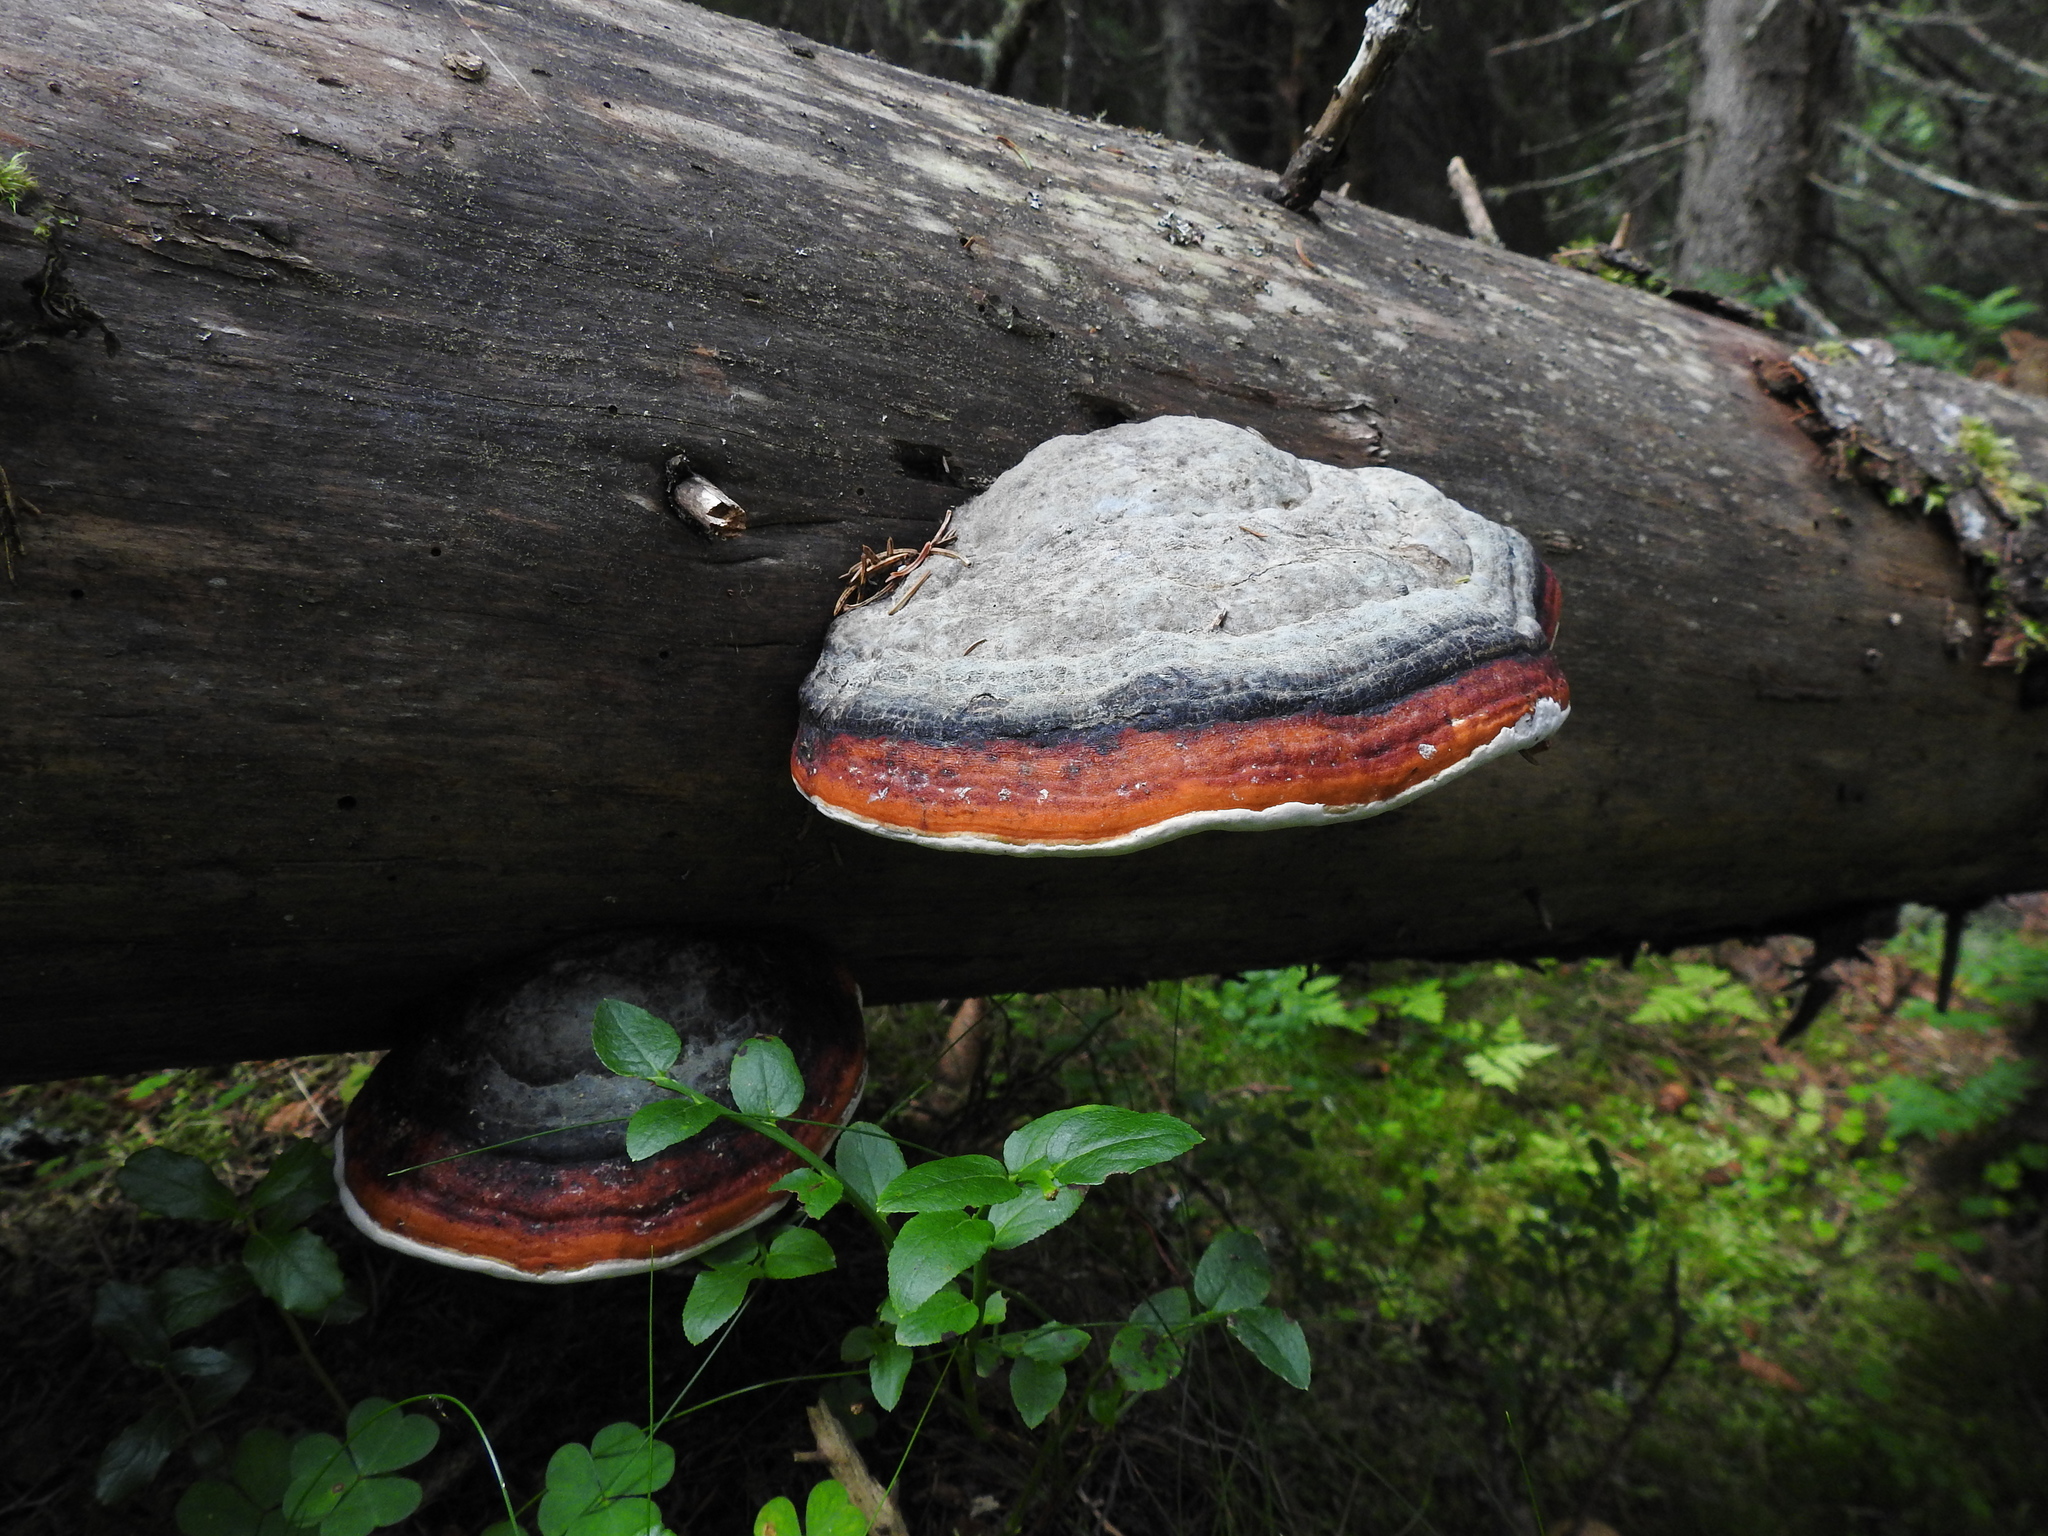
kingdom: Fungi
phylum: Basidiomycota
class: Agaricomycetes
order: Polyporales
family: Fomitopsidaceae
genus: Fomitopsis
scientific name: Fomitopsis pinicola
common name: Red-belted bracket
